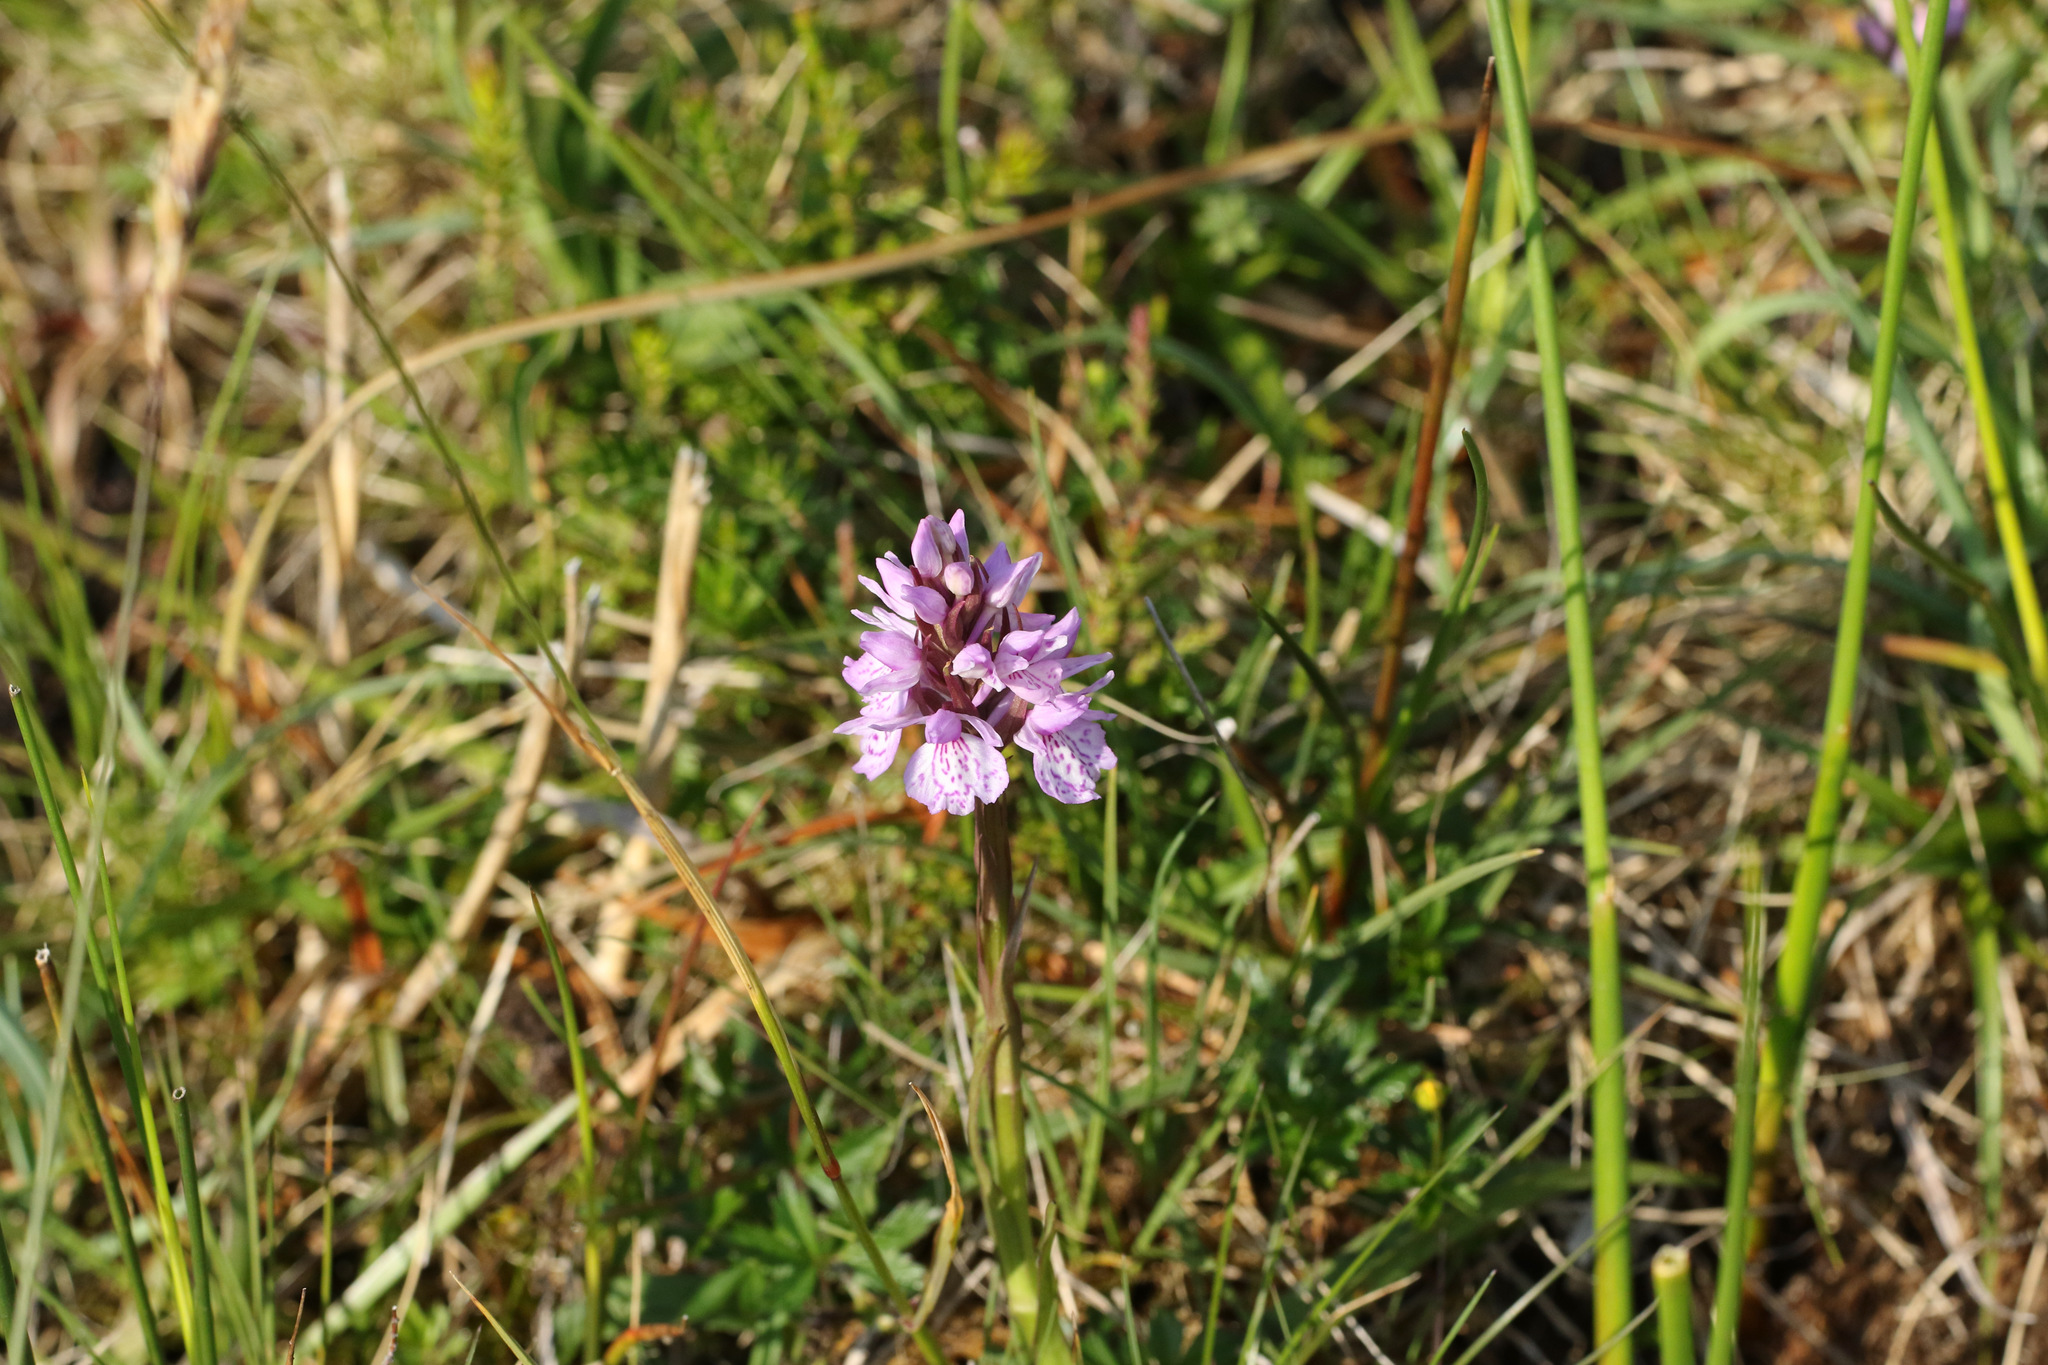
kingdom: Plantae
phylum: Tracheophyta
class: Liliopsida
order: Asparagales
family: Orchidaceae
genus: Dactylorhiza
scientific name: Dactylorhiza maculata
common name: Heath spotted-orchid
